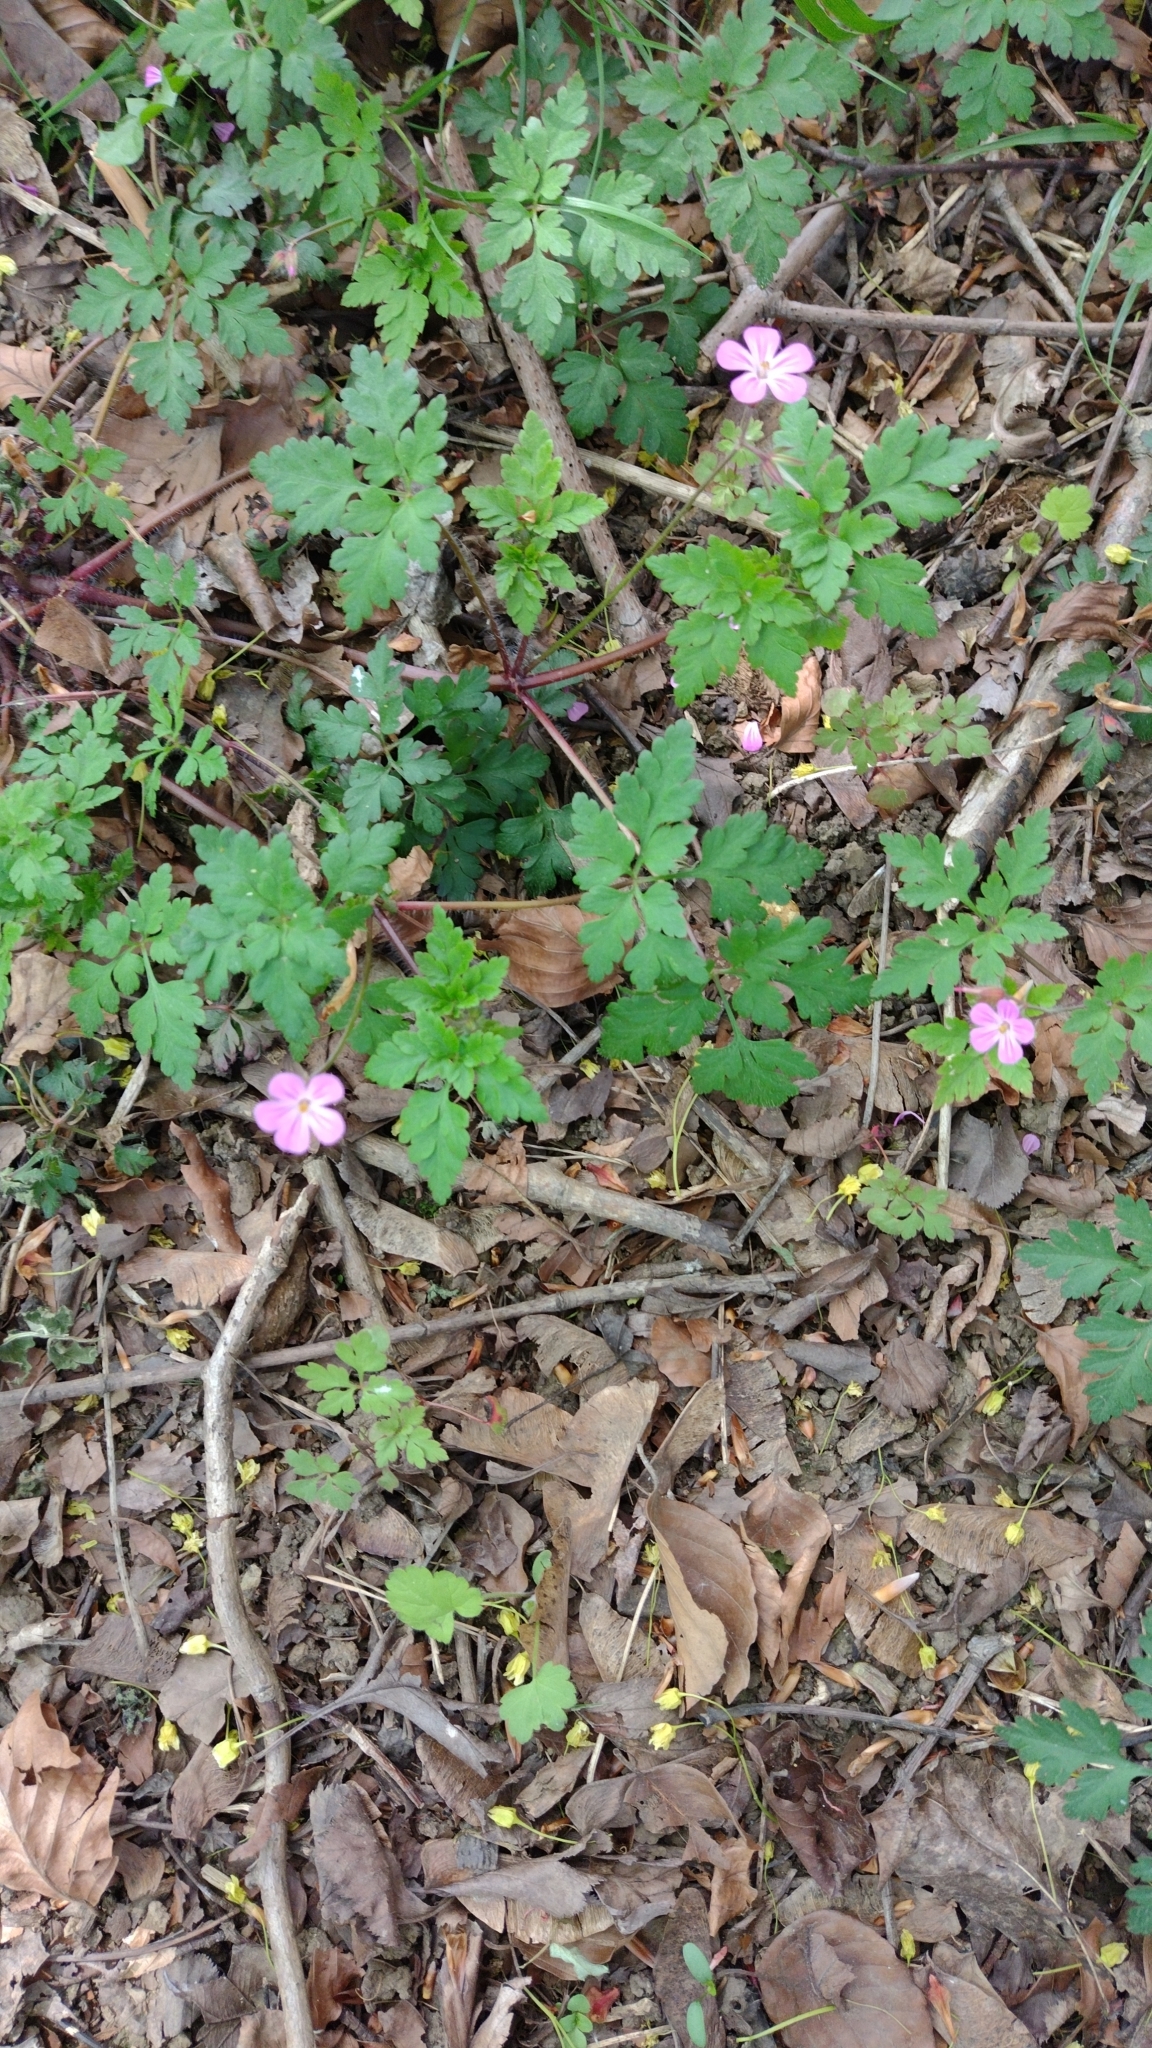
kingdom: Plantae
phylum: Tracheophyta
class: Magnoliopsida
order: Geraniales
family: Geraniaceae
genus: Geranium
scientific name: Geranium robertianum
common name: Herb-robert
